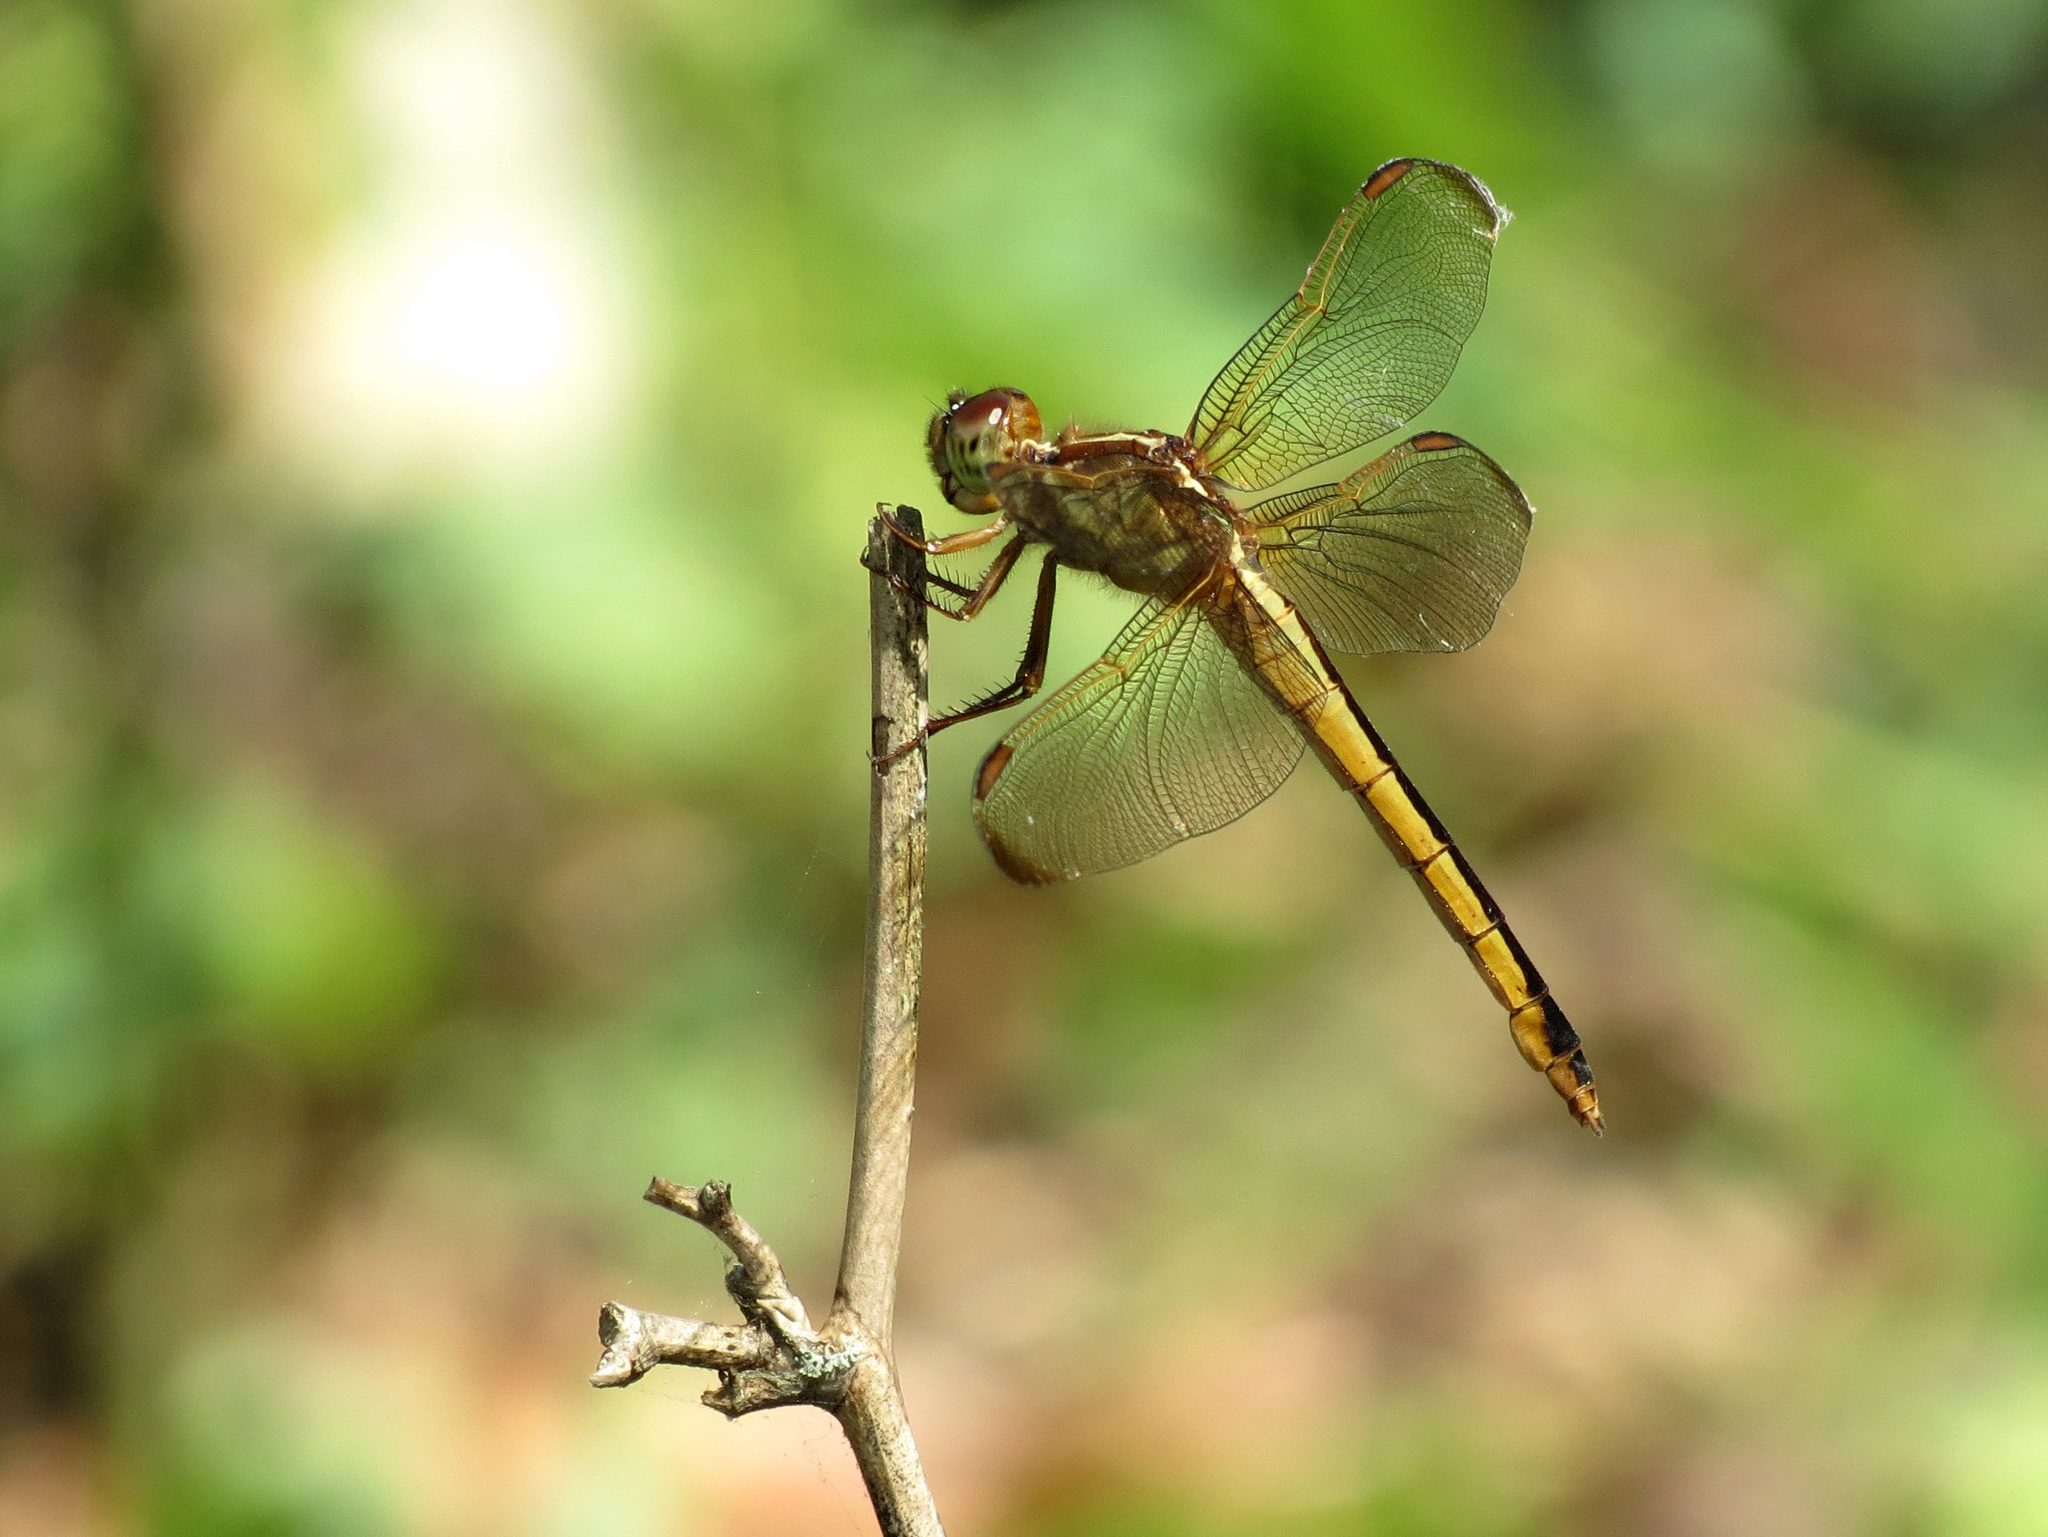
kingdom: Animalia
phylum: Arthropoda
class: Insecta
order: Odonata
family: Libellulidae
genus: Libellula
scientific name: Libellula needhami
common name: Needham's skimmer
